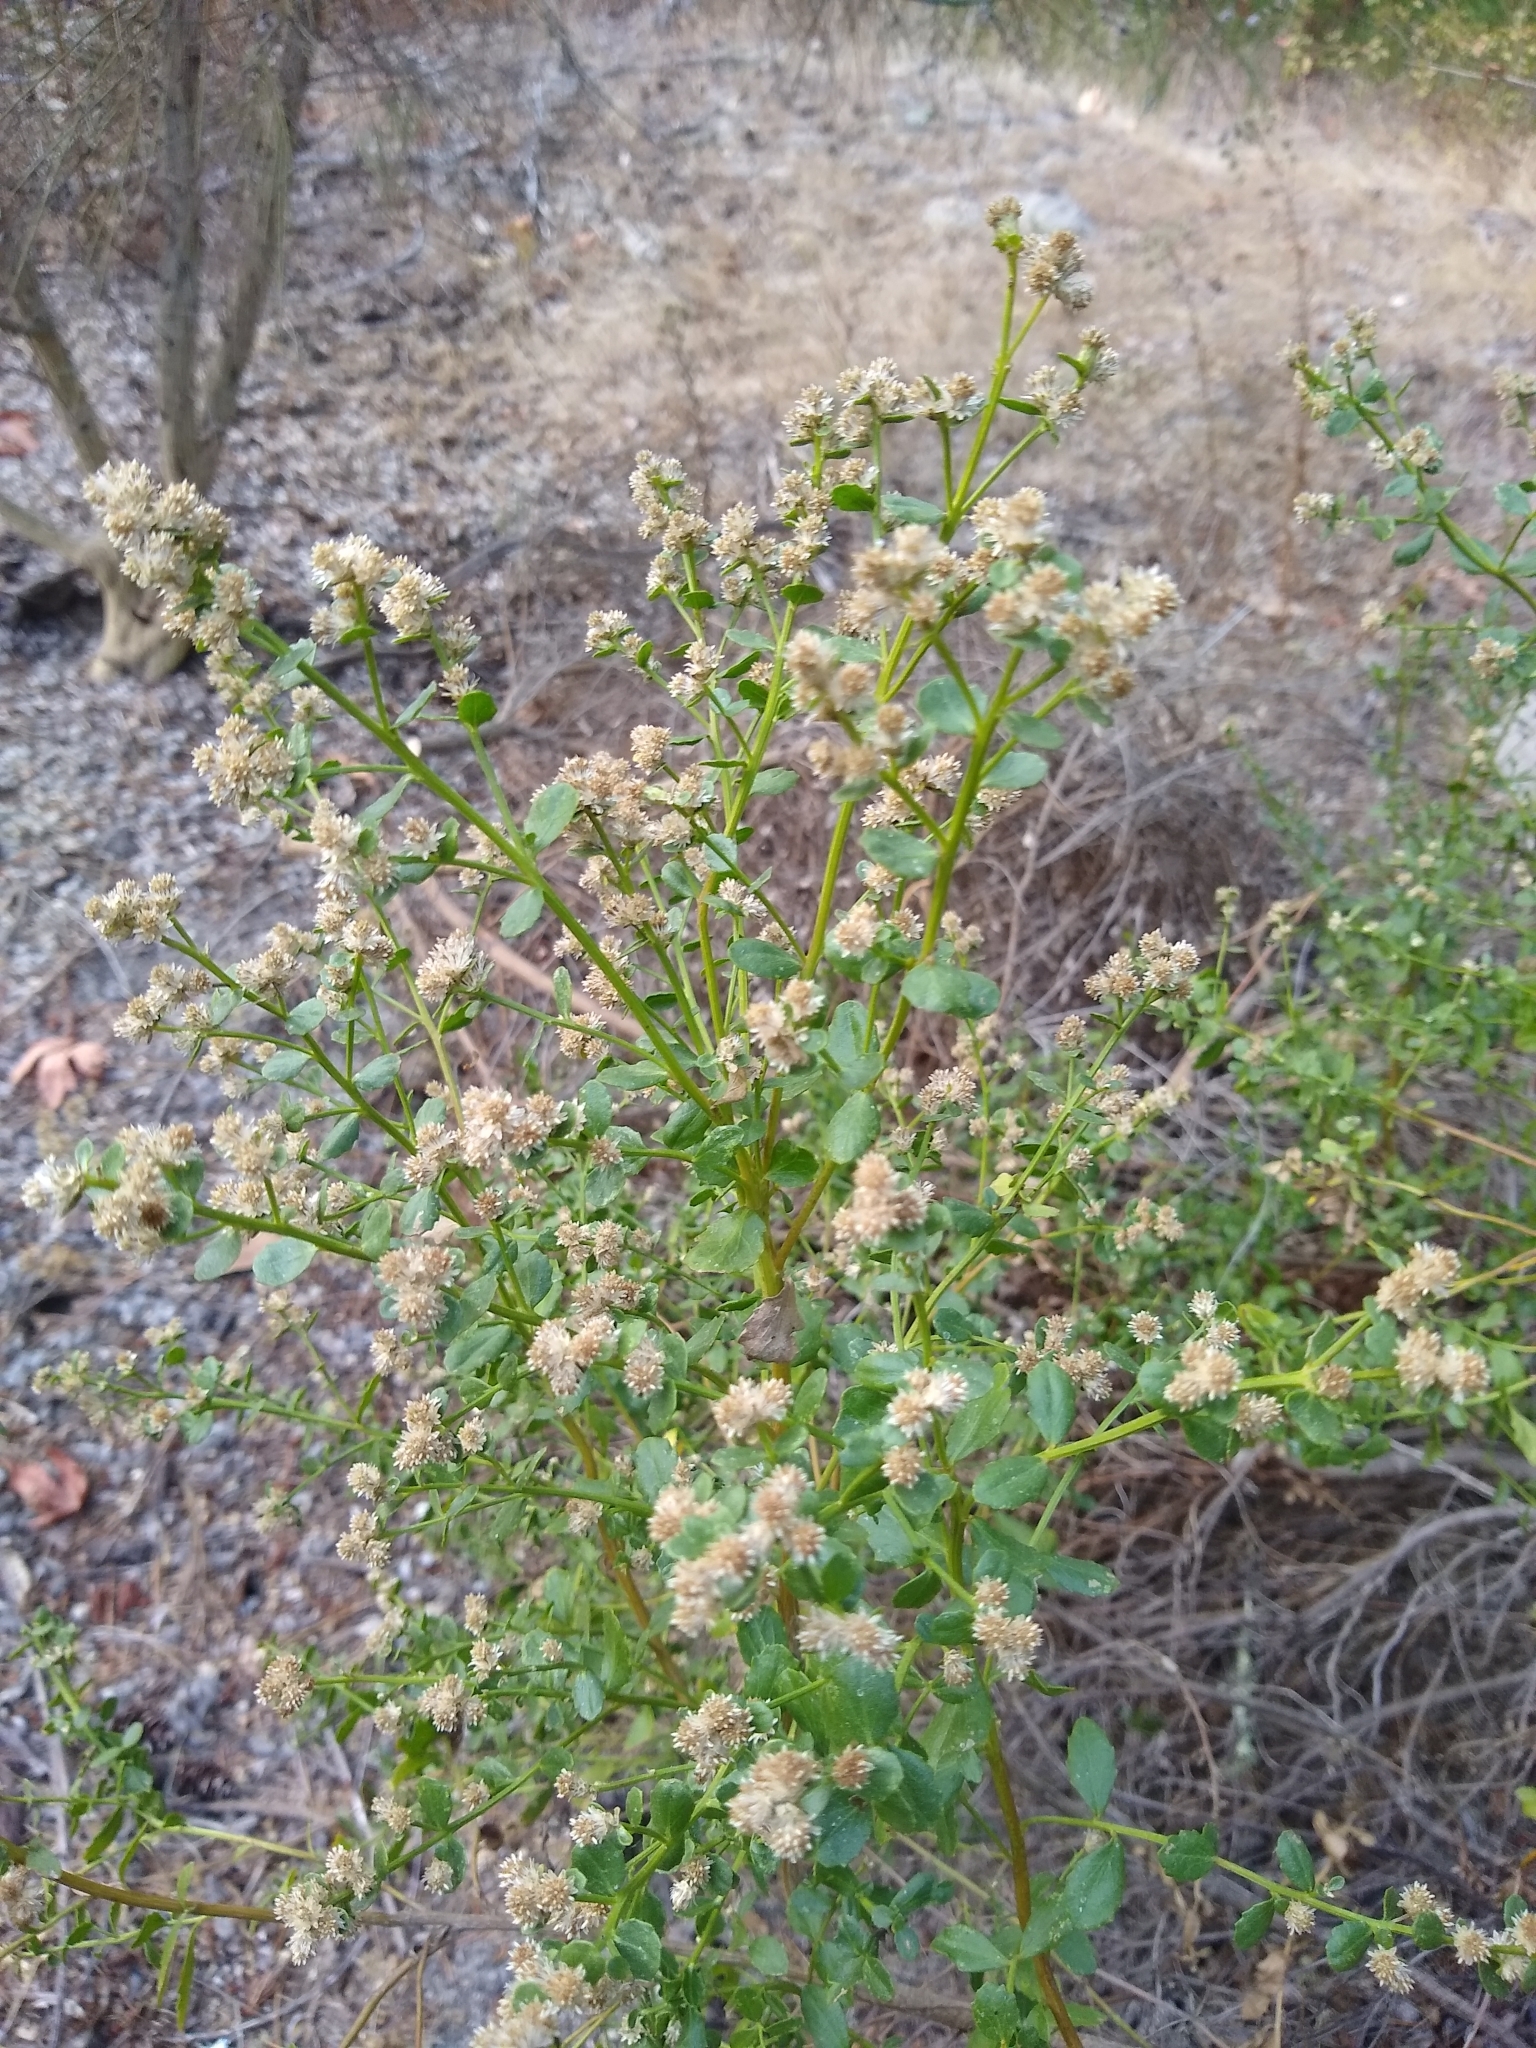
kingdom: Plantae
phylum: Tracheophyta
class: Magnoliopsida
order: Asterales
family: Asteraceae
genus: Baccharis
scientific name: Baccharis pilularis
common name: Coyotebrush
